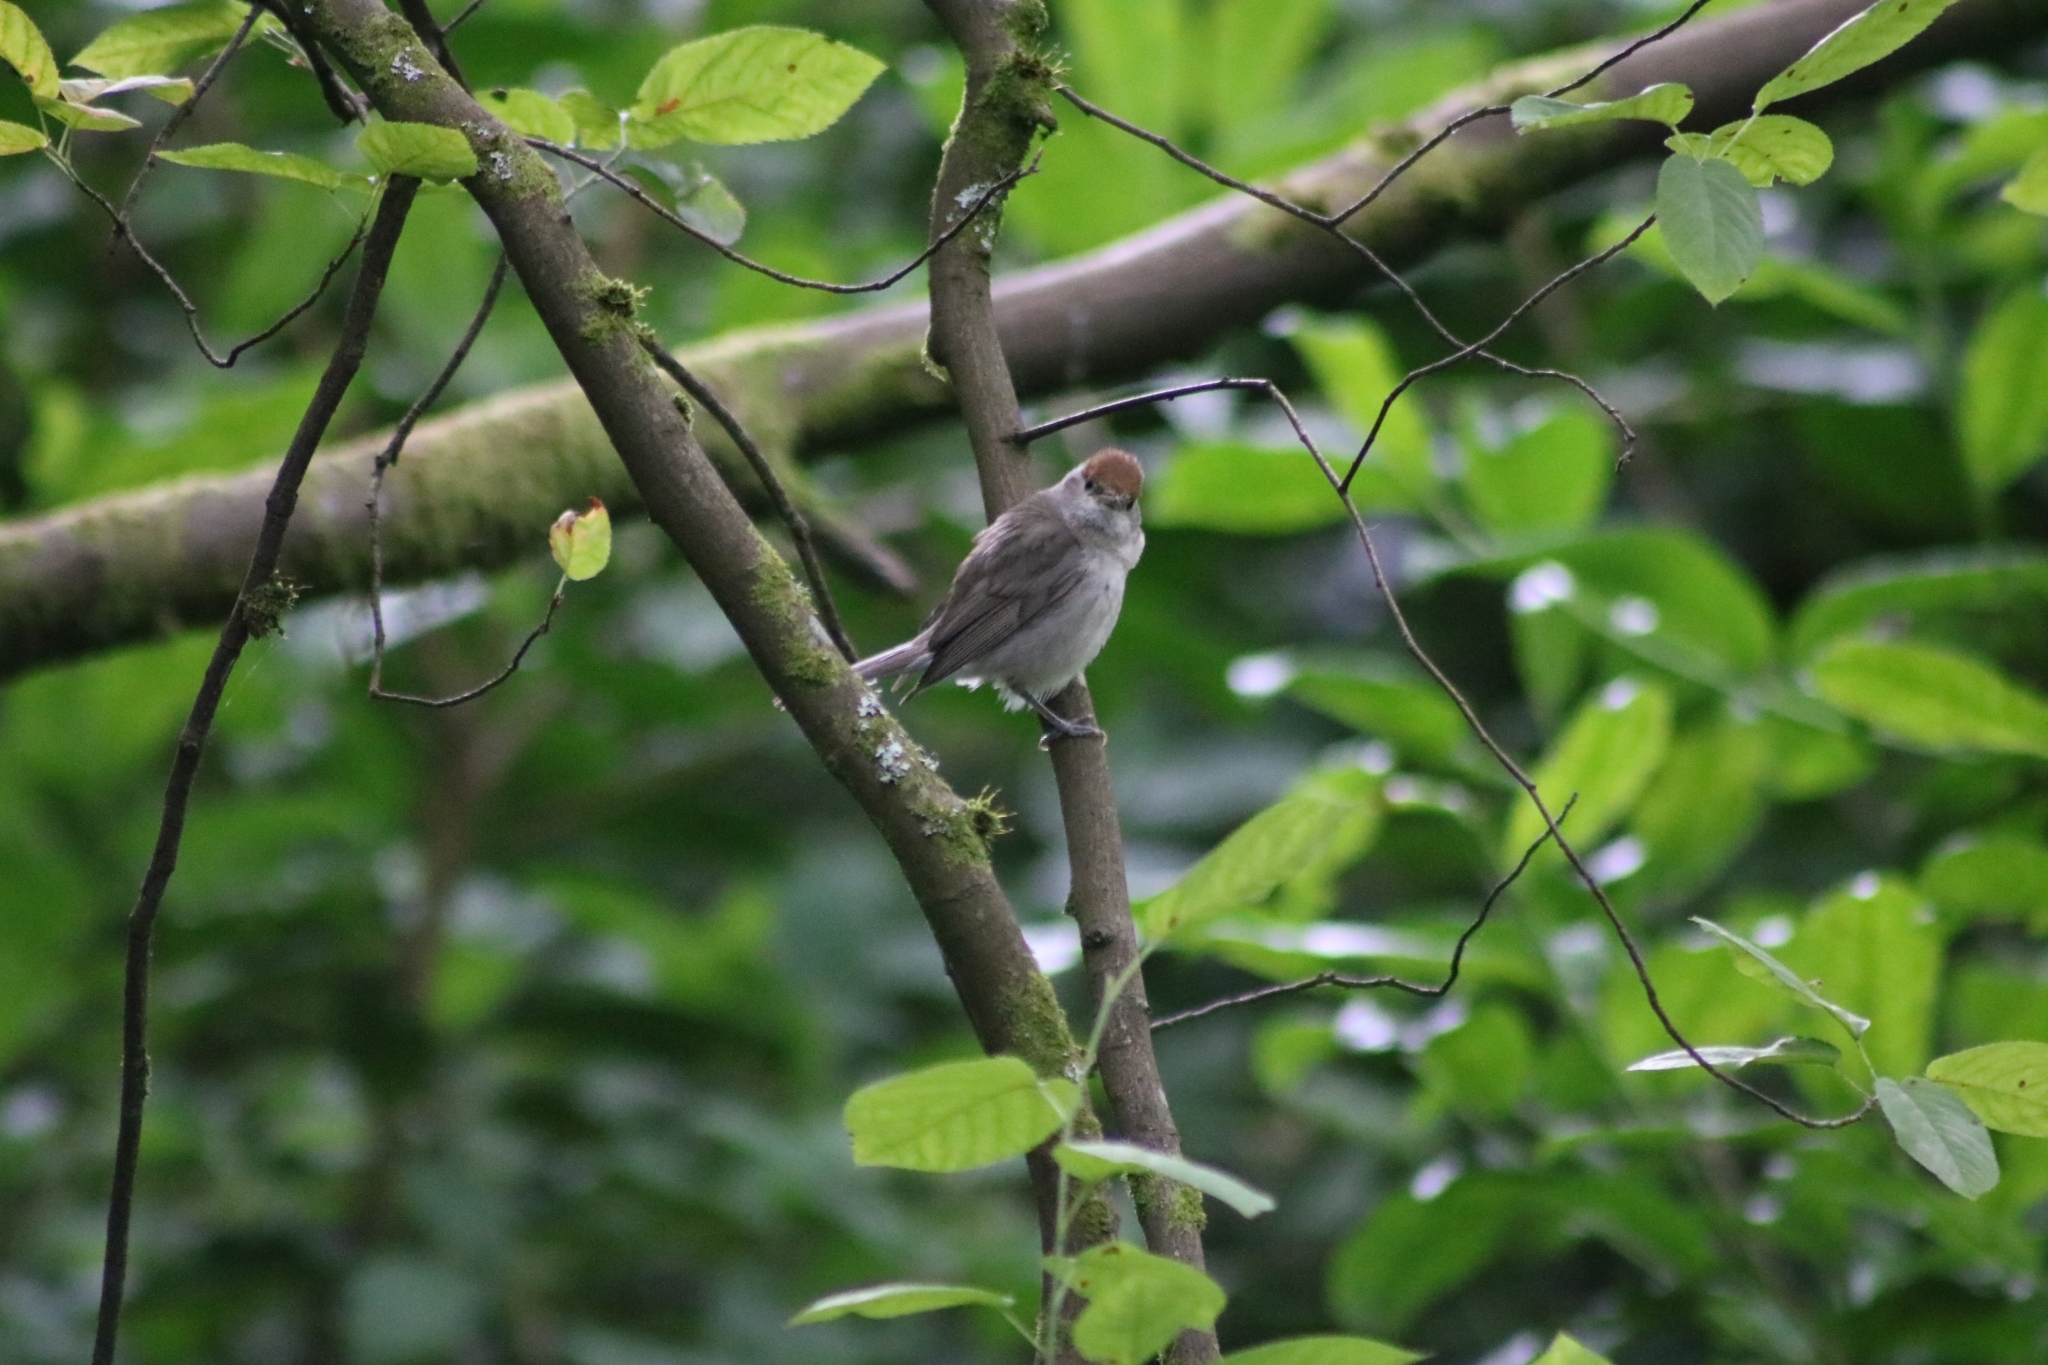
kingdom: Animalia
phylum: Chordata
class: Aves
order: Passeriformes
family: Sylviidae
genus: Sylvia
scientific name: Sylvia atricapilla
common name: Eurasian blackcap
